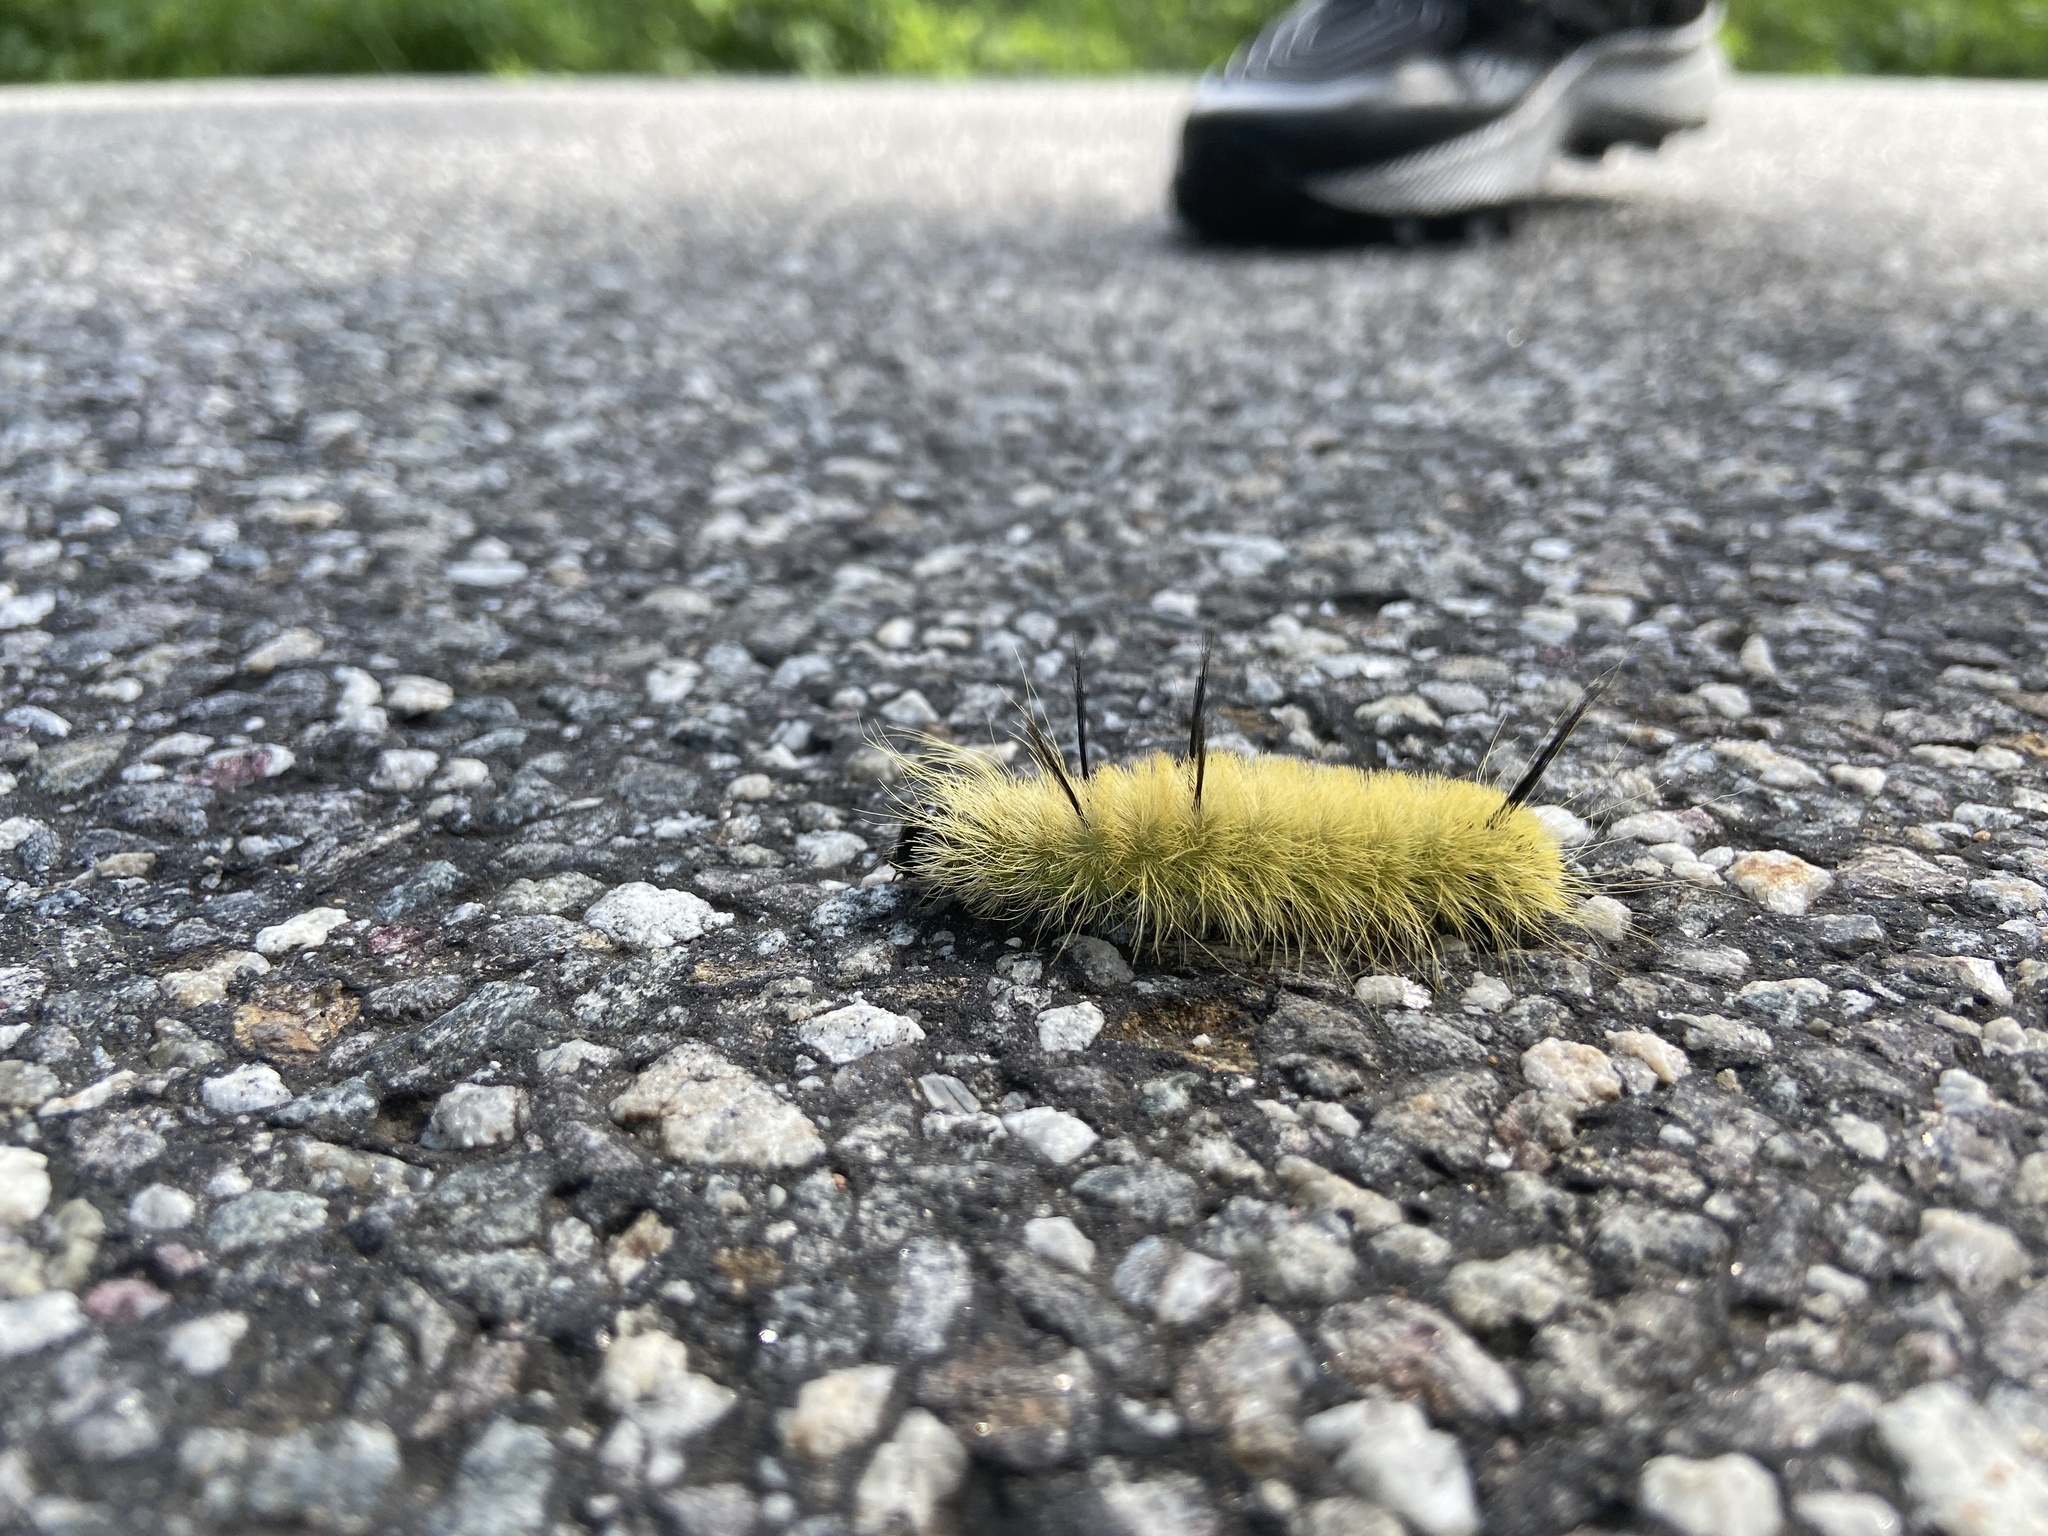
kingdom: Animalia
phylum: Arthropoda
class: Insecta
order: Lepidoptera
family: Noctuidae
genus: Acronicta
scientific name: Acronicta americana
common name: American dagger
